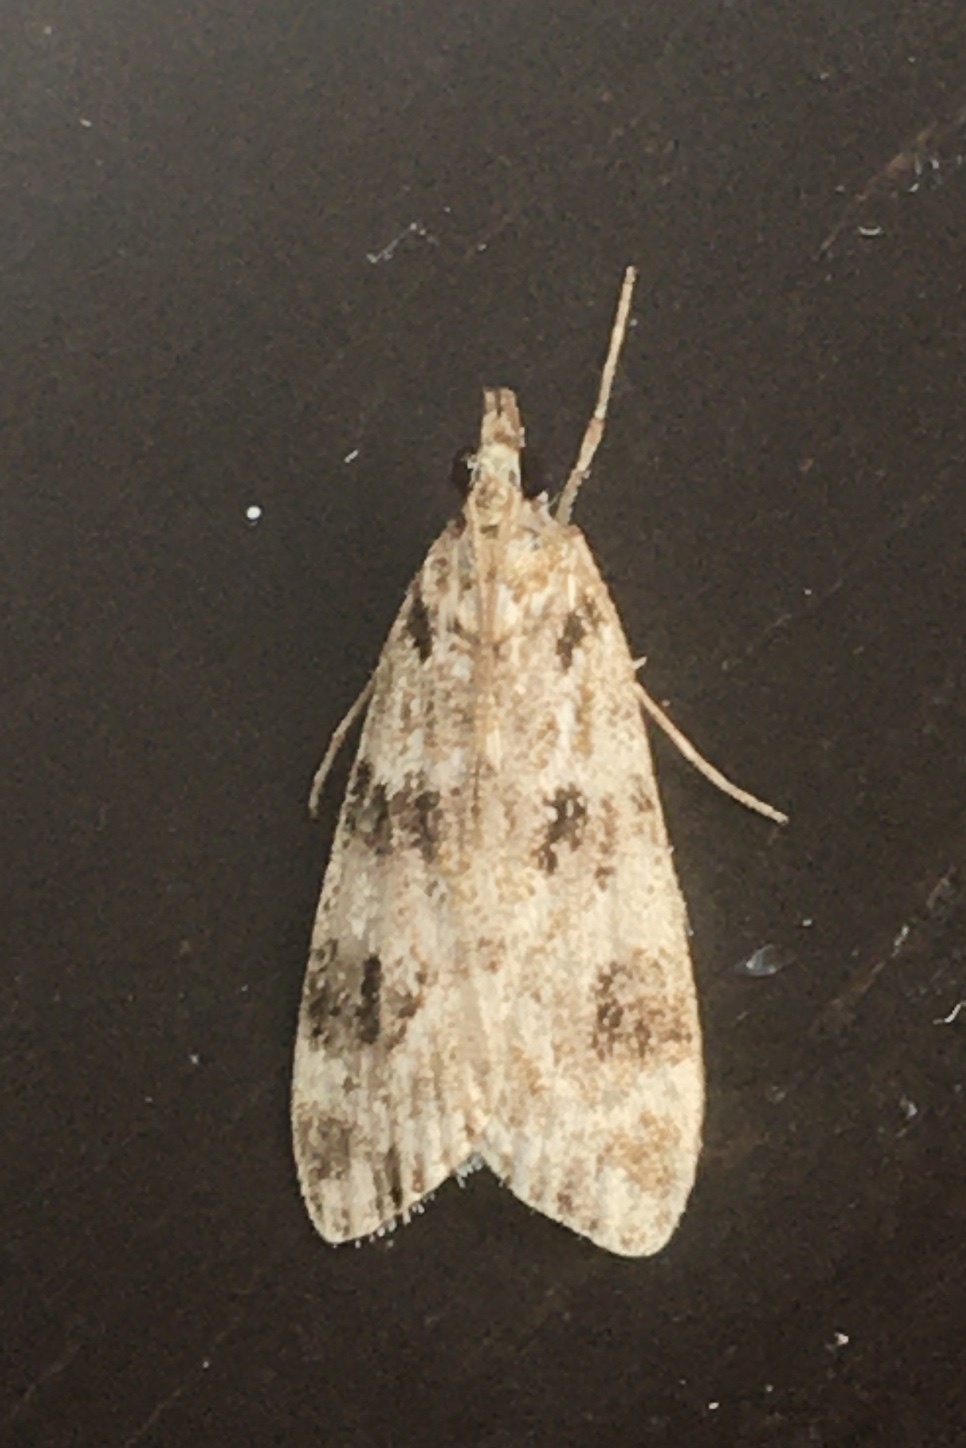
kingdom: Animalia
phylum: Arthropoda
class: Insecta
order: Lepidoptera
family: Crambidae
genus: Eudonia
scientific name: Eudonia delunella
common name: Pied grey
